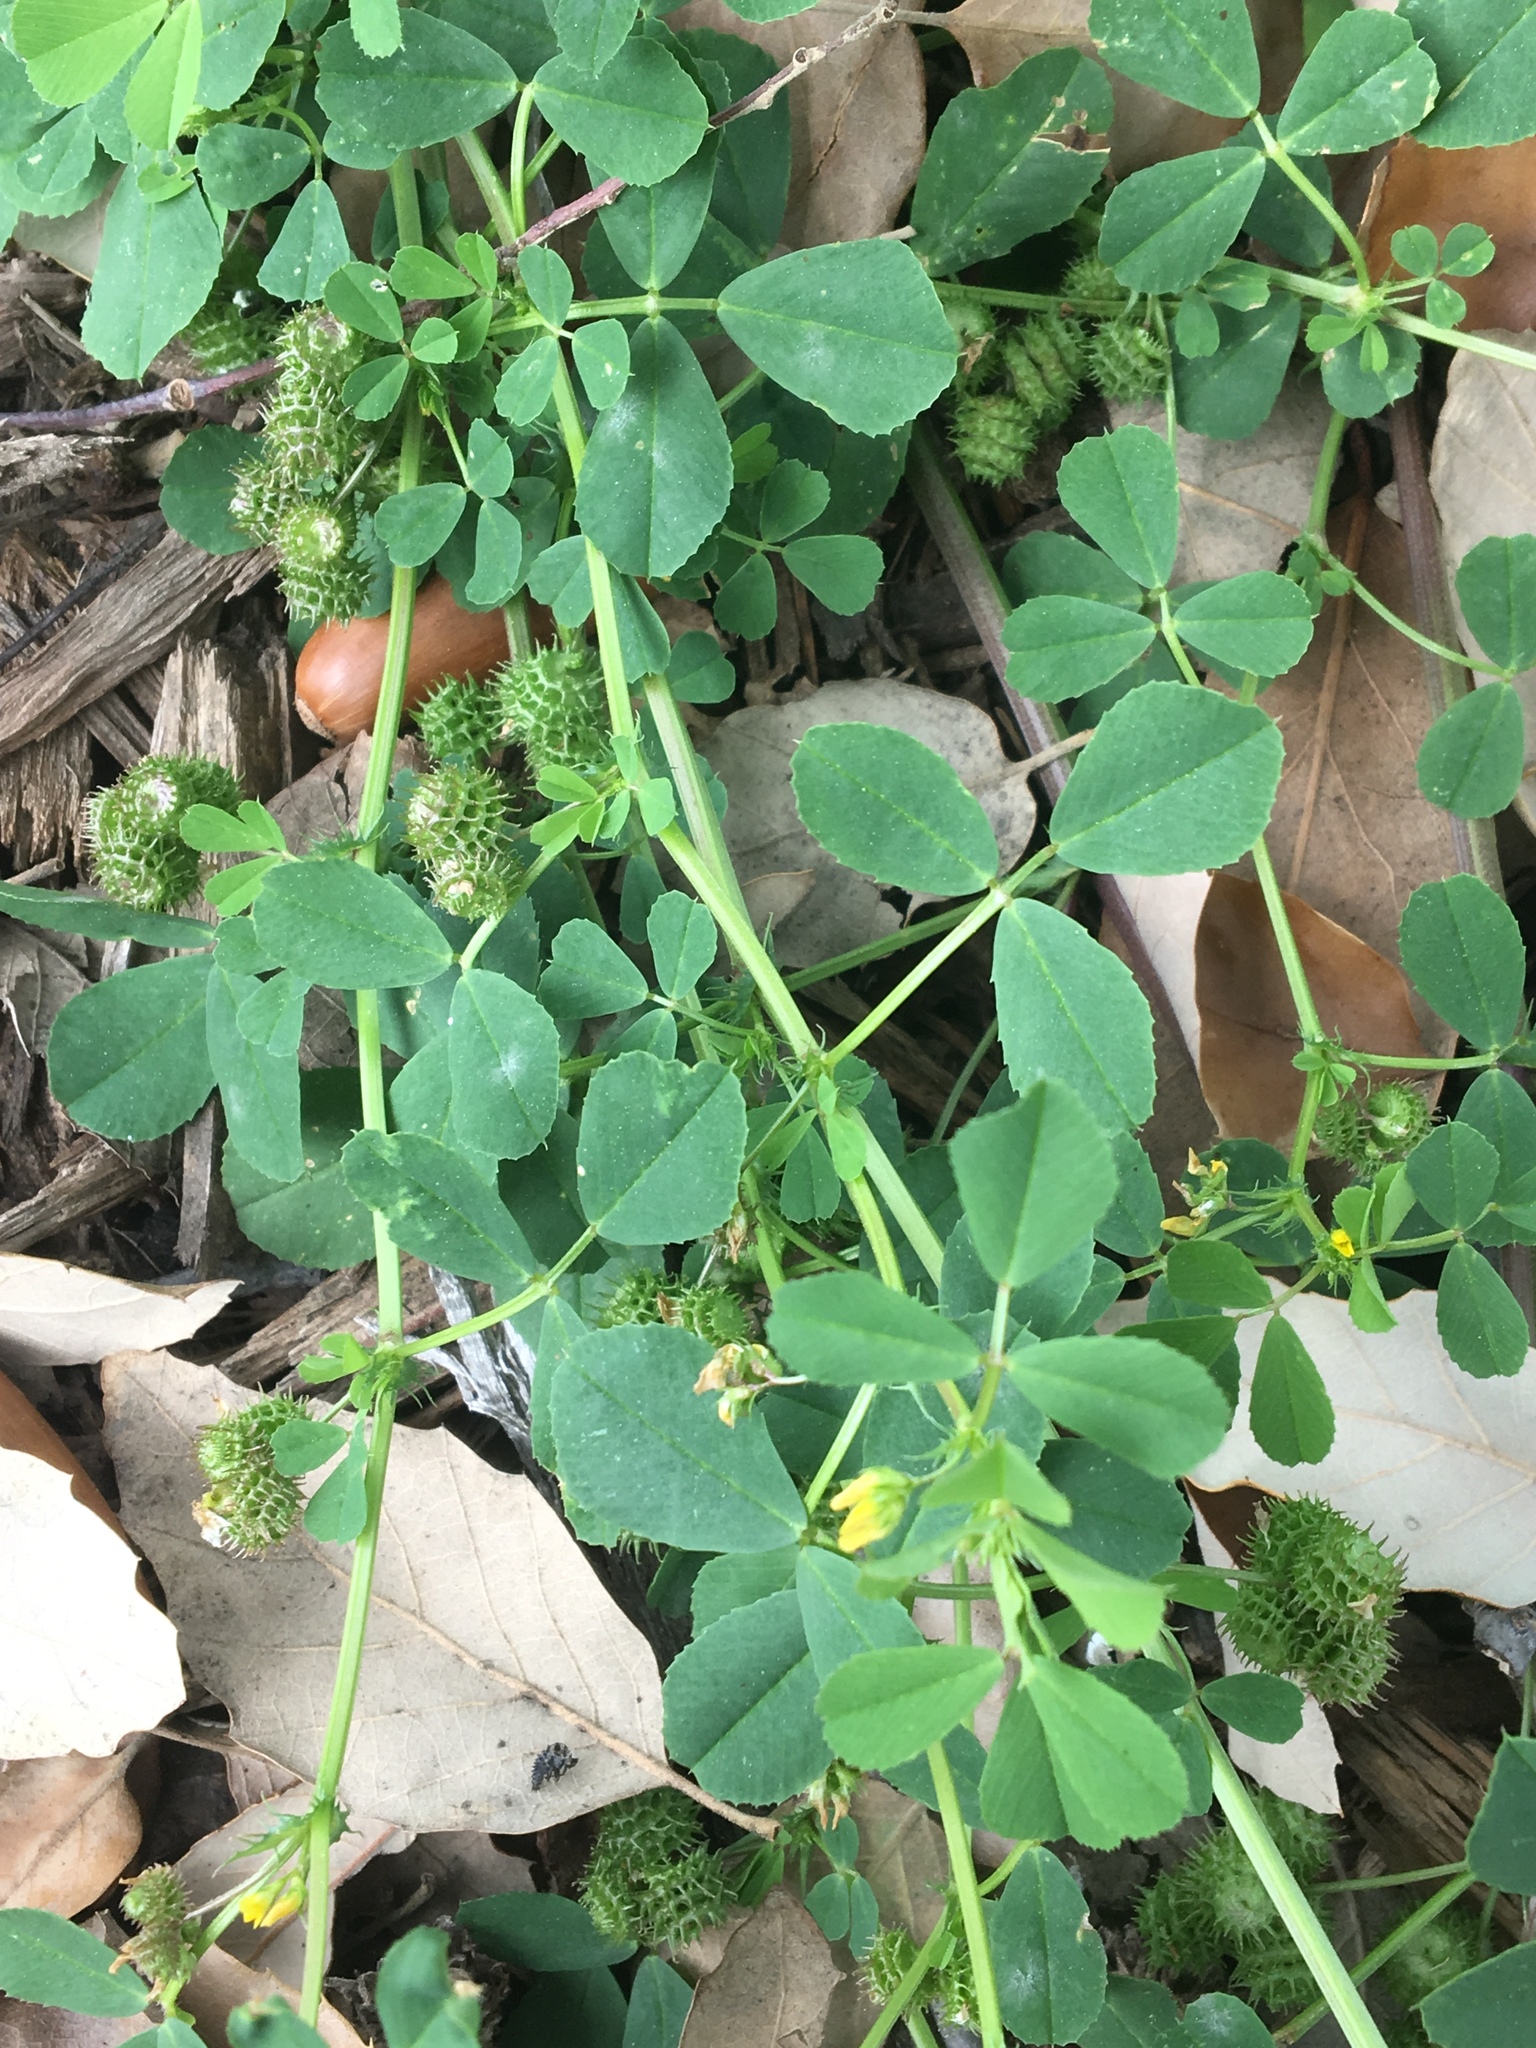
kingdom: Plantae
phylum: Tracheophyta
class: Magnoliopsida
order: Fabales
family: Fabaceae
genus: Medicago
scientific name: Medicago polymorpha
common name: Burclover
